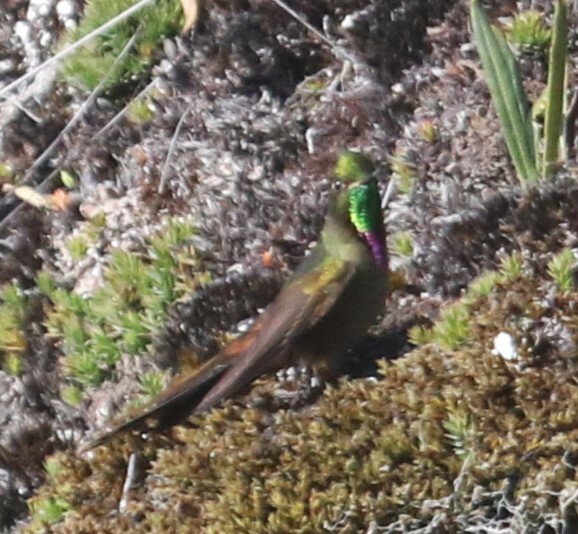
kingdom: Animalia
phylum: Chordata
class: Aves
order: Apodiformes
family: Trochilidae
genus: Chalcostigma
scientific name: Chalcostigma heteropogon
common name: Bronze-tailed thornbill
